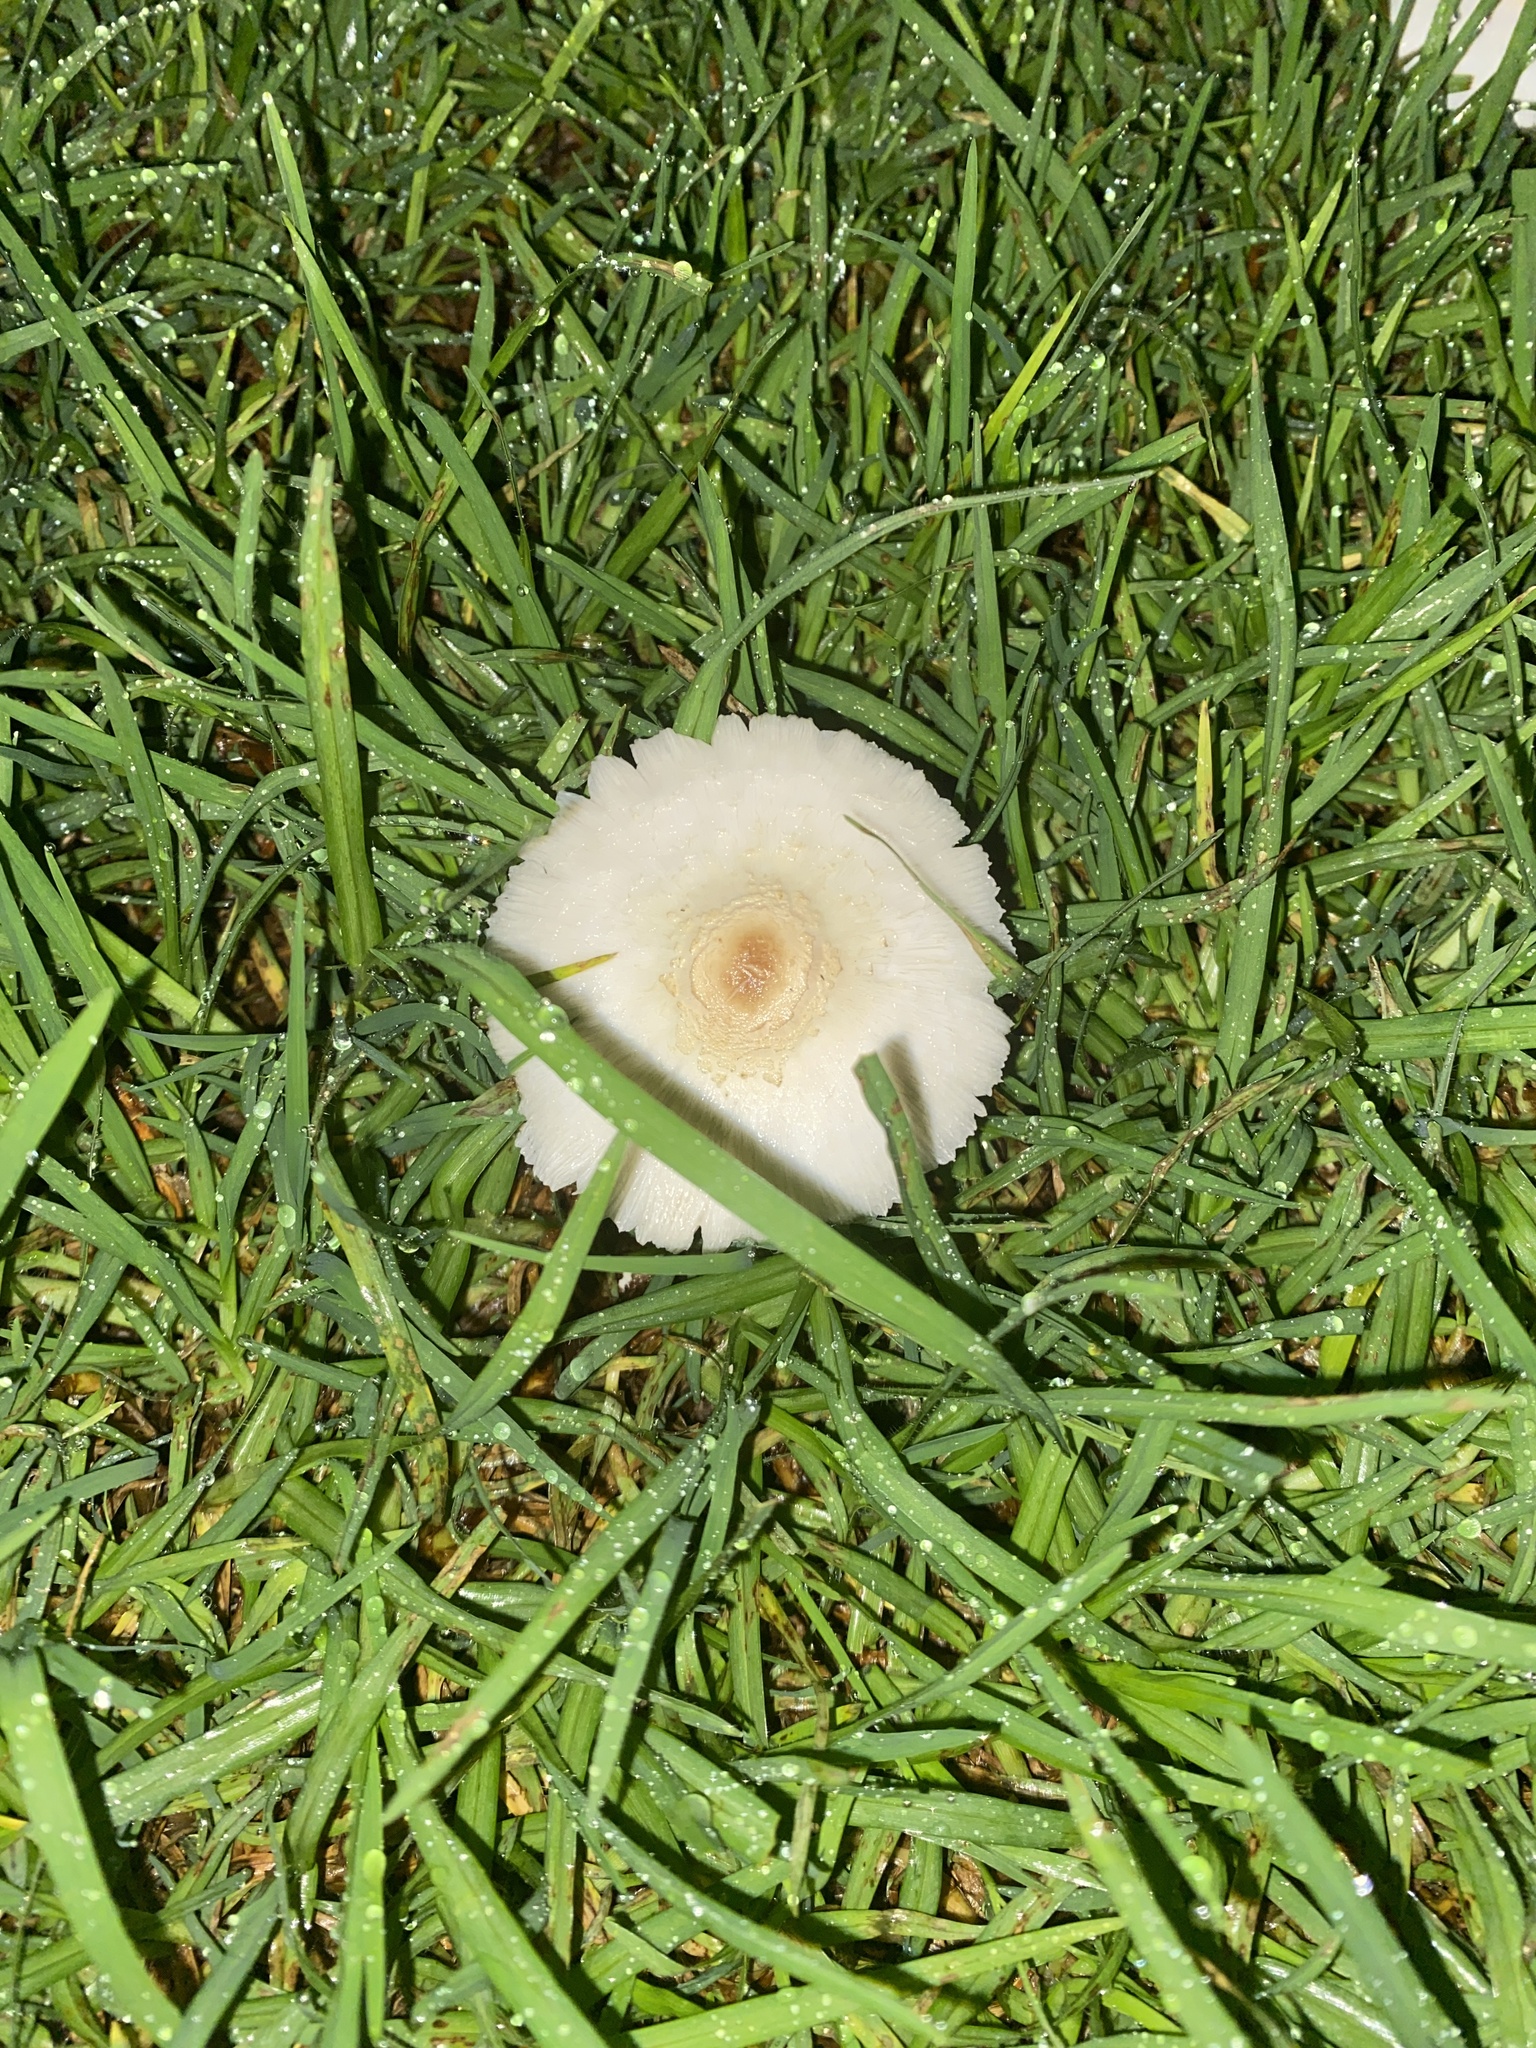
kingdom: Fungi
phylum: Basidiomycota
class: Agaricomycetes
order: Agaricales
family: Agaricaceae
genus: Chlorophyllum
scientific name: Chlorophyllum hortense
